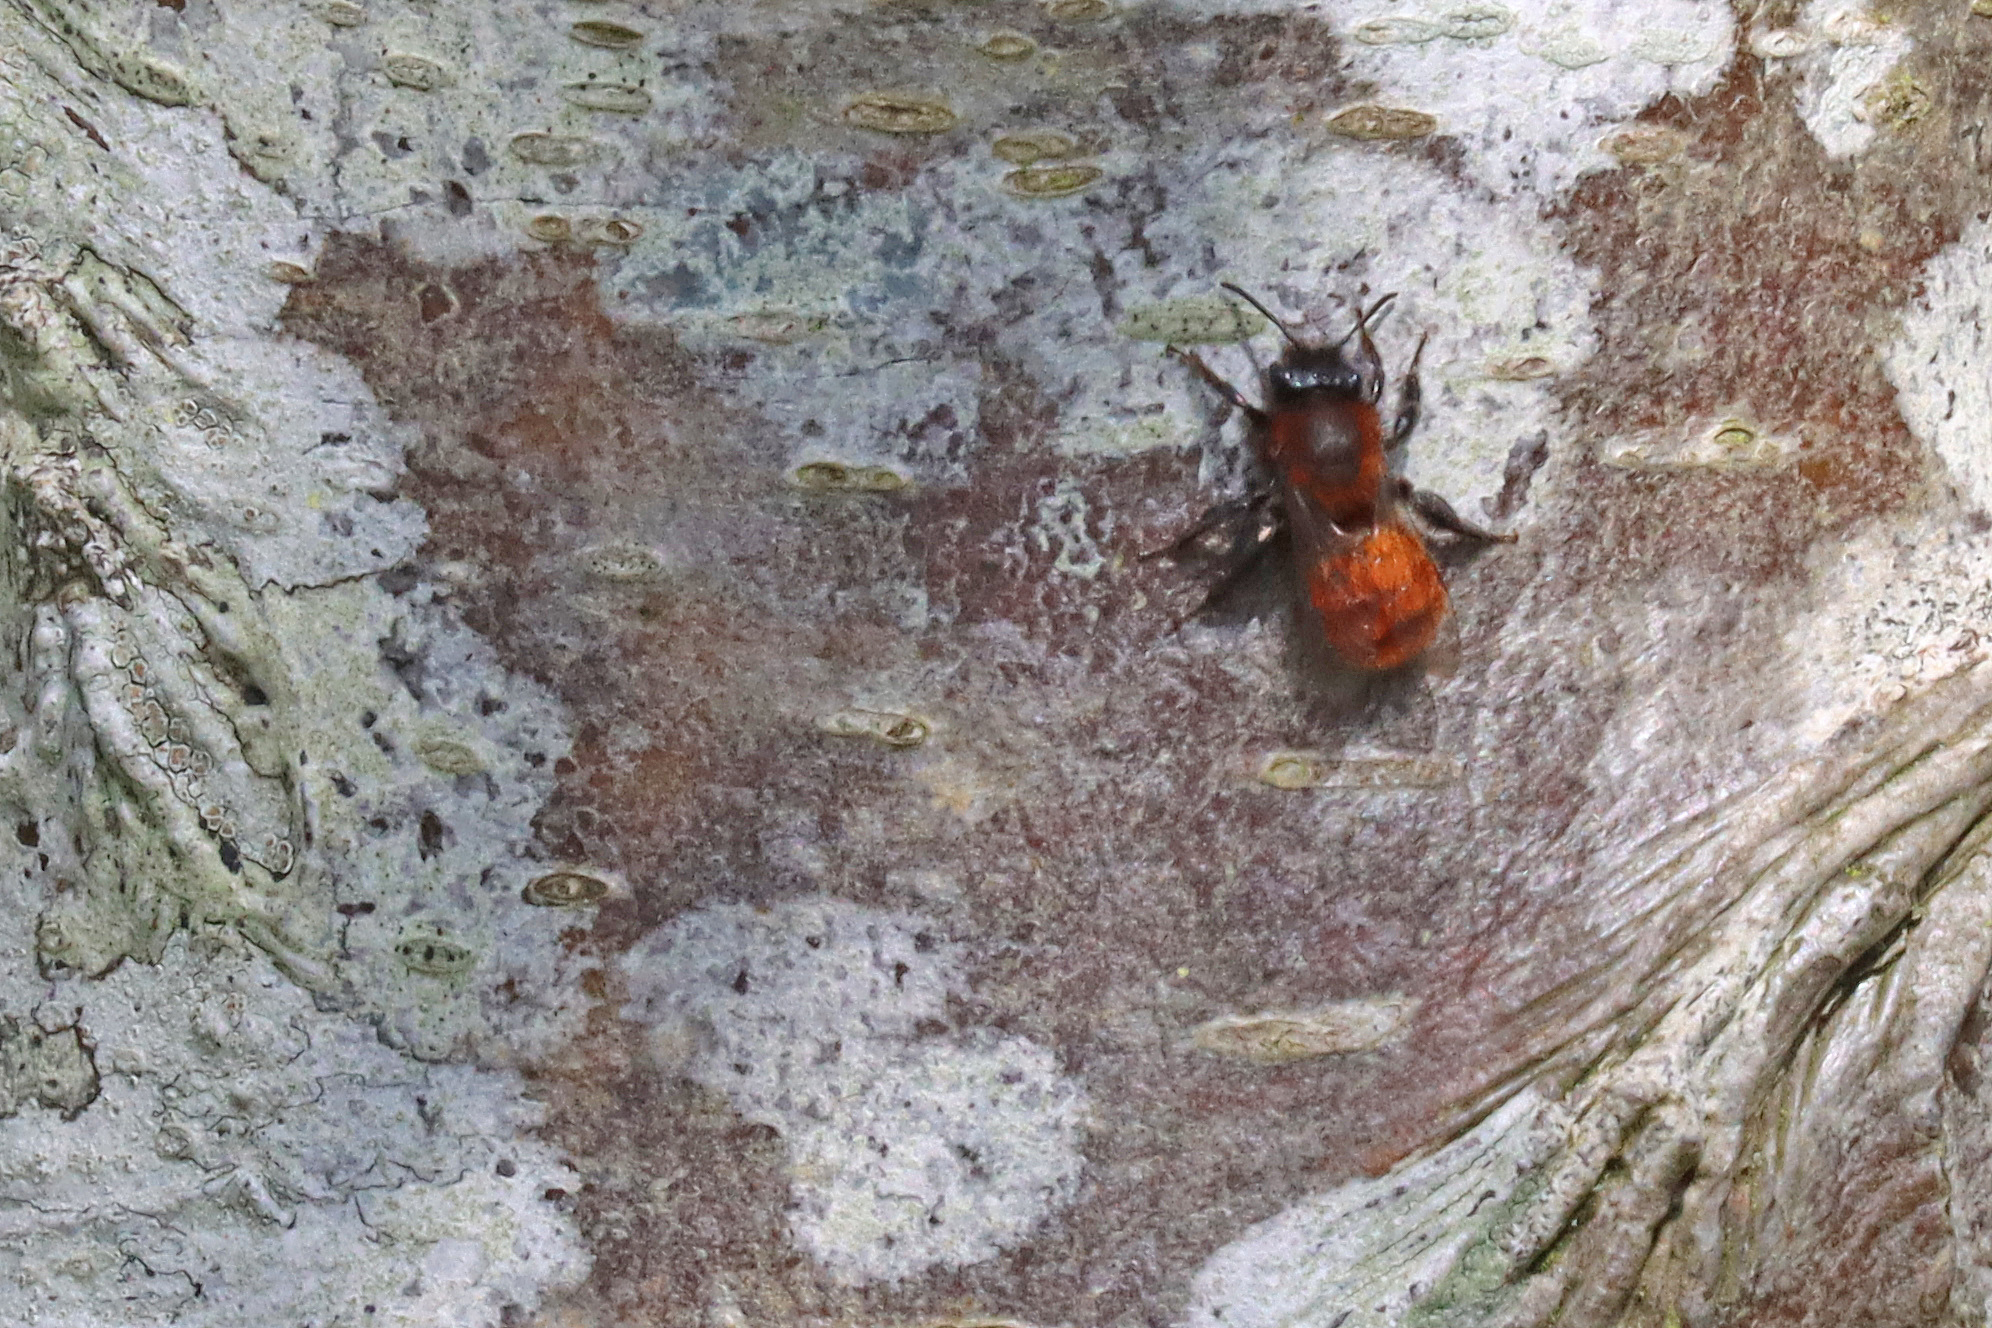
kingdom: Animalia
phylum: Arthropoda
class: Insecta
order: Hymenoptera
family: Andrenidae
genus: Andrena
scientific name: Andrena fulva
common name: Tawny mining bee
